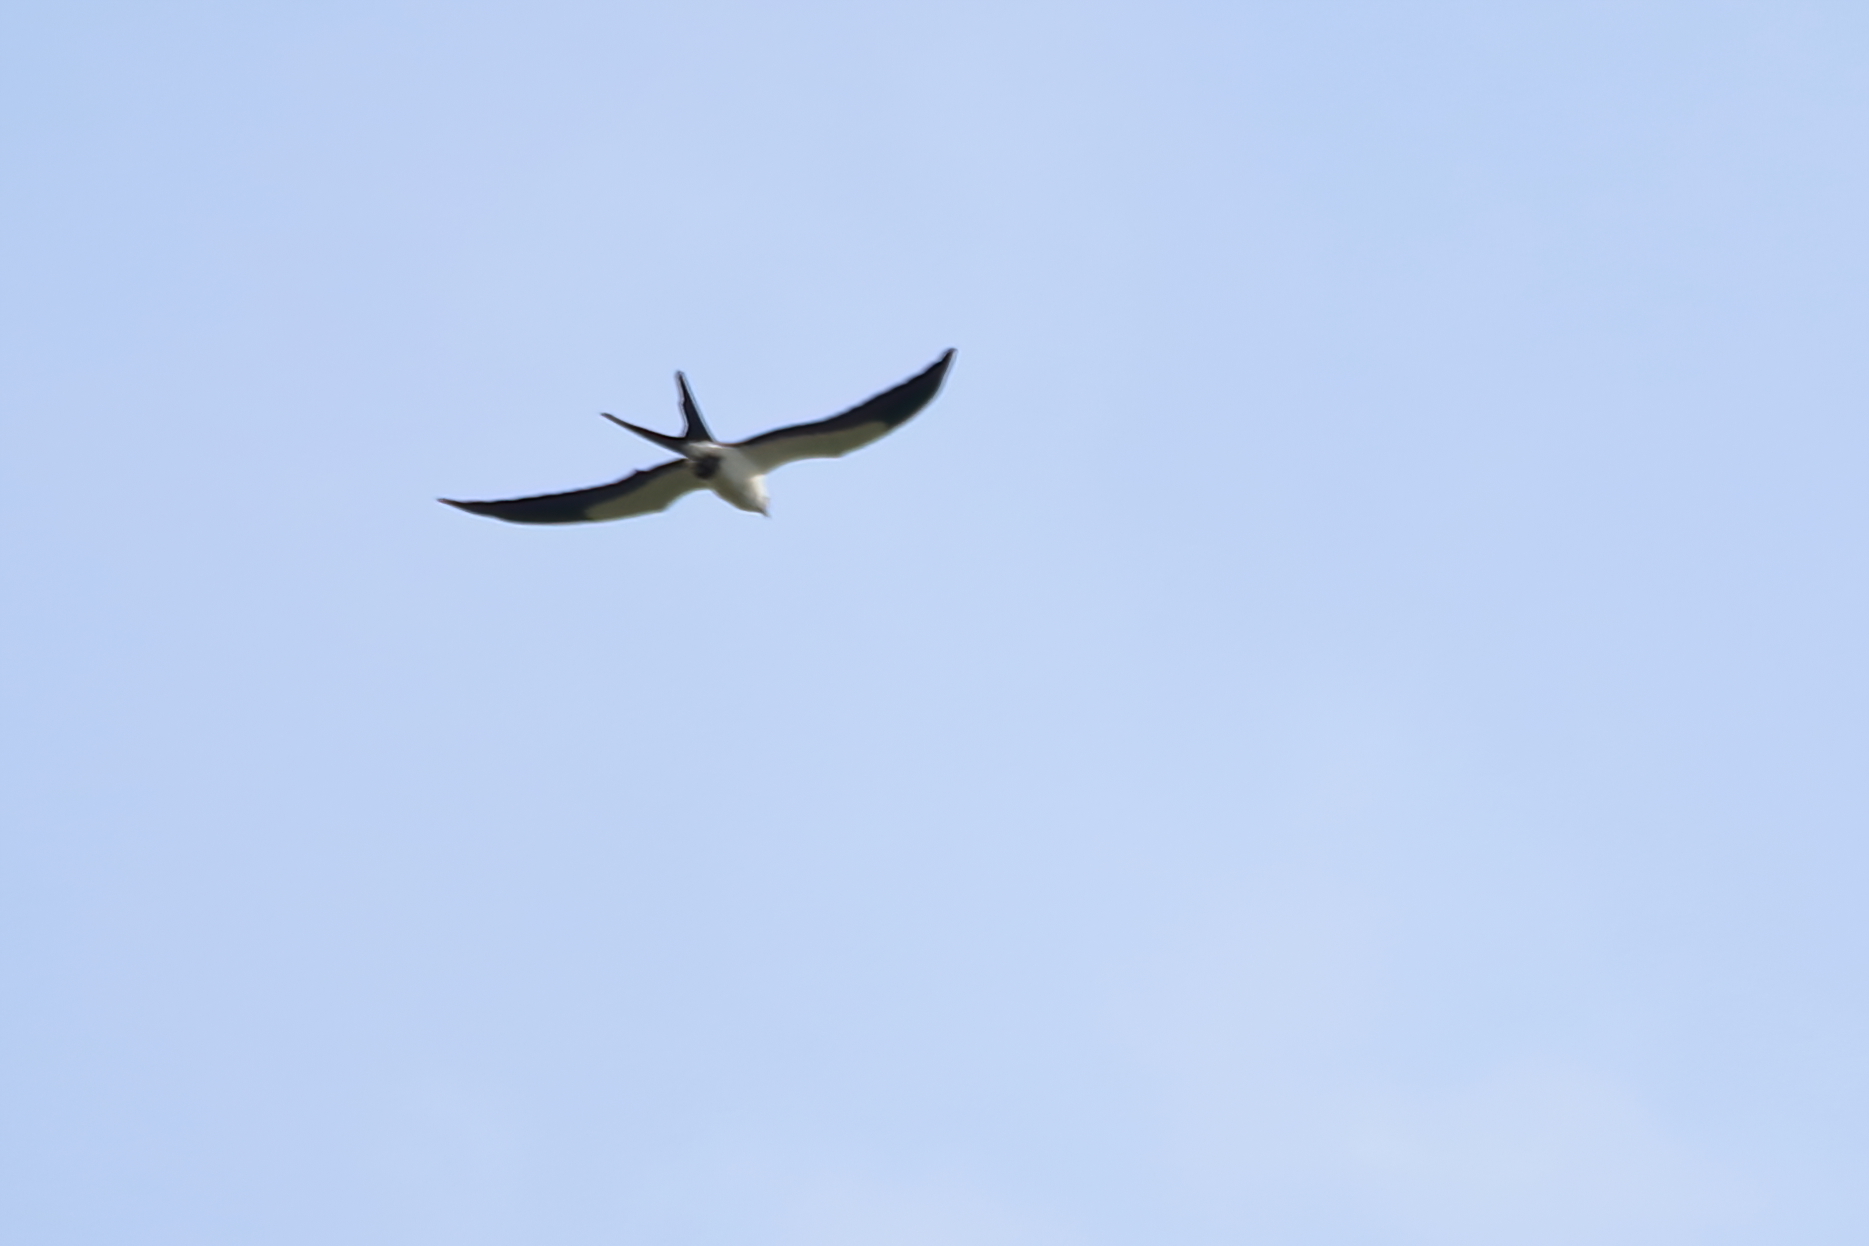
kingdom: Animalia
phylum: Chordata
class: Aves
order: Accipitriformes
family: Accipitridae
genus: Elanoides
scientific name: Elanoides forficatus
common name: Swallow-tailed kite
